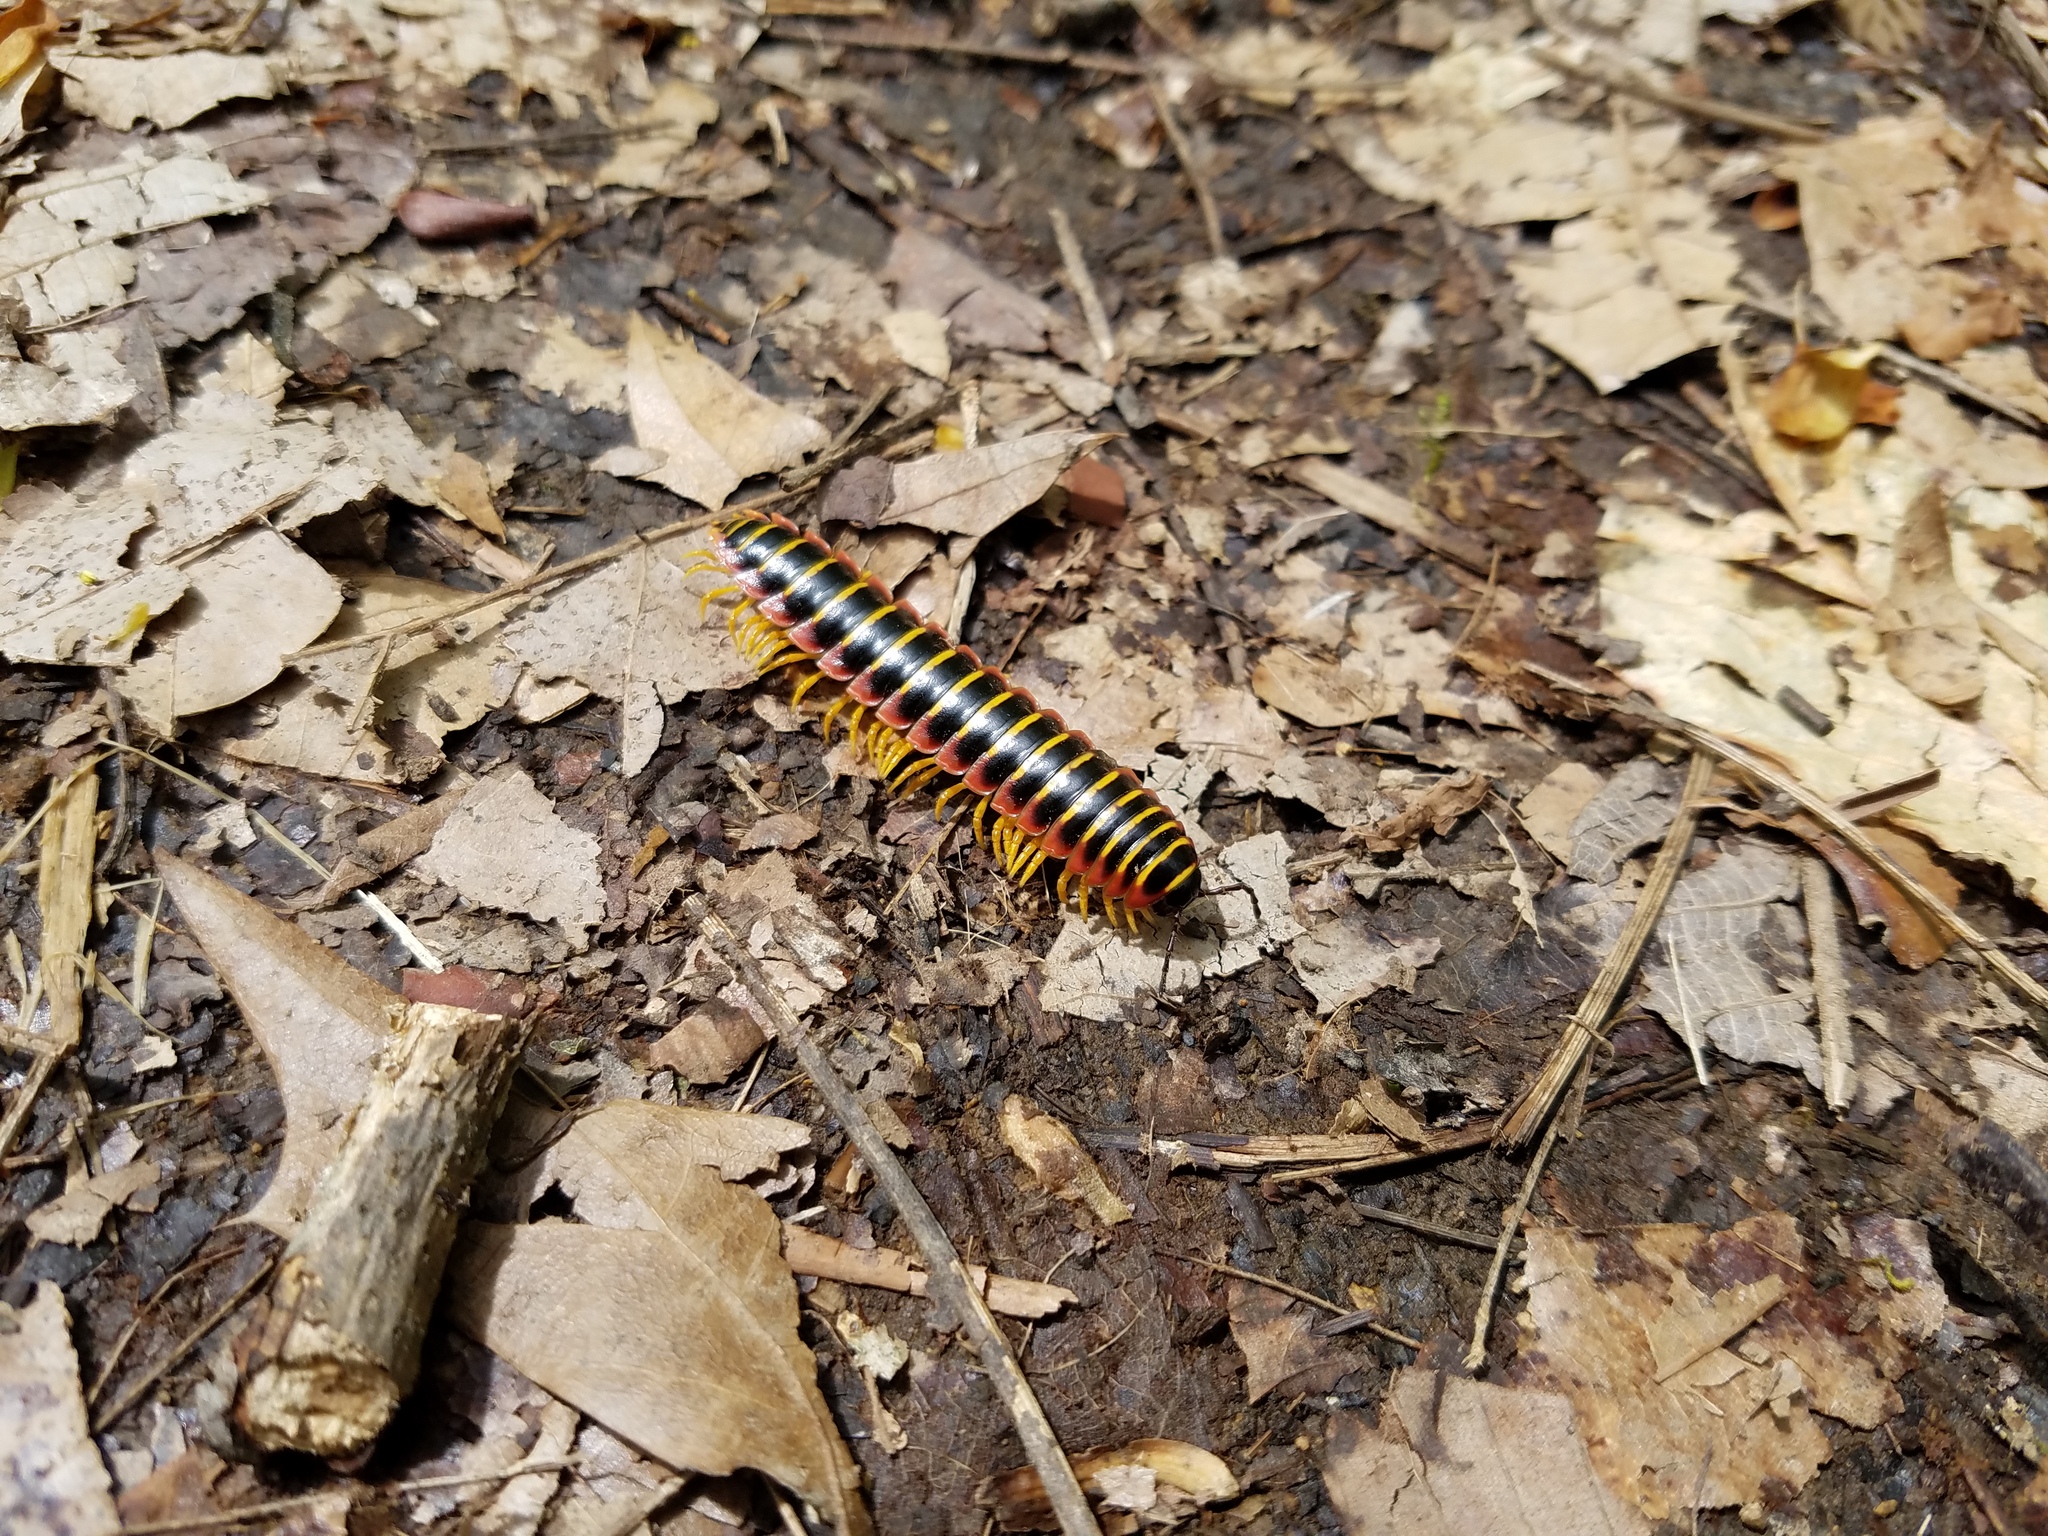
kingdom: Animalia
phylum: Arthropoda
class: Diplopoda
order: Polydesmida
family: Xystodesmidae
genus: Apheloria
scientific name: Apheloria virginiensis
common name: Black-and-gold flat millipede
